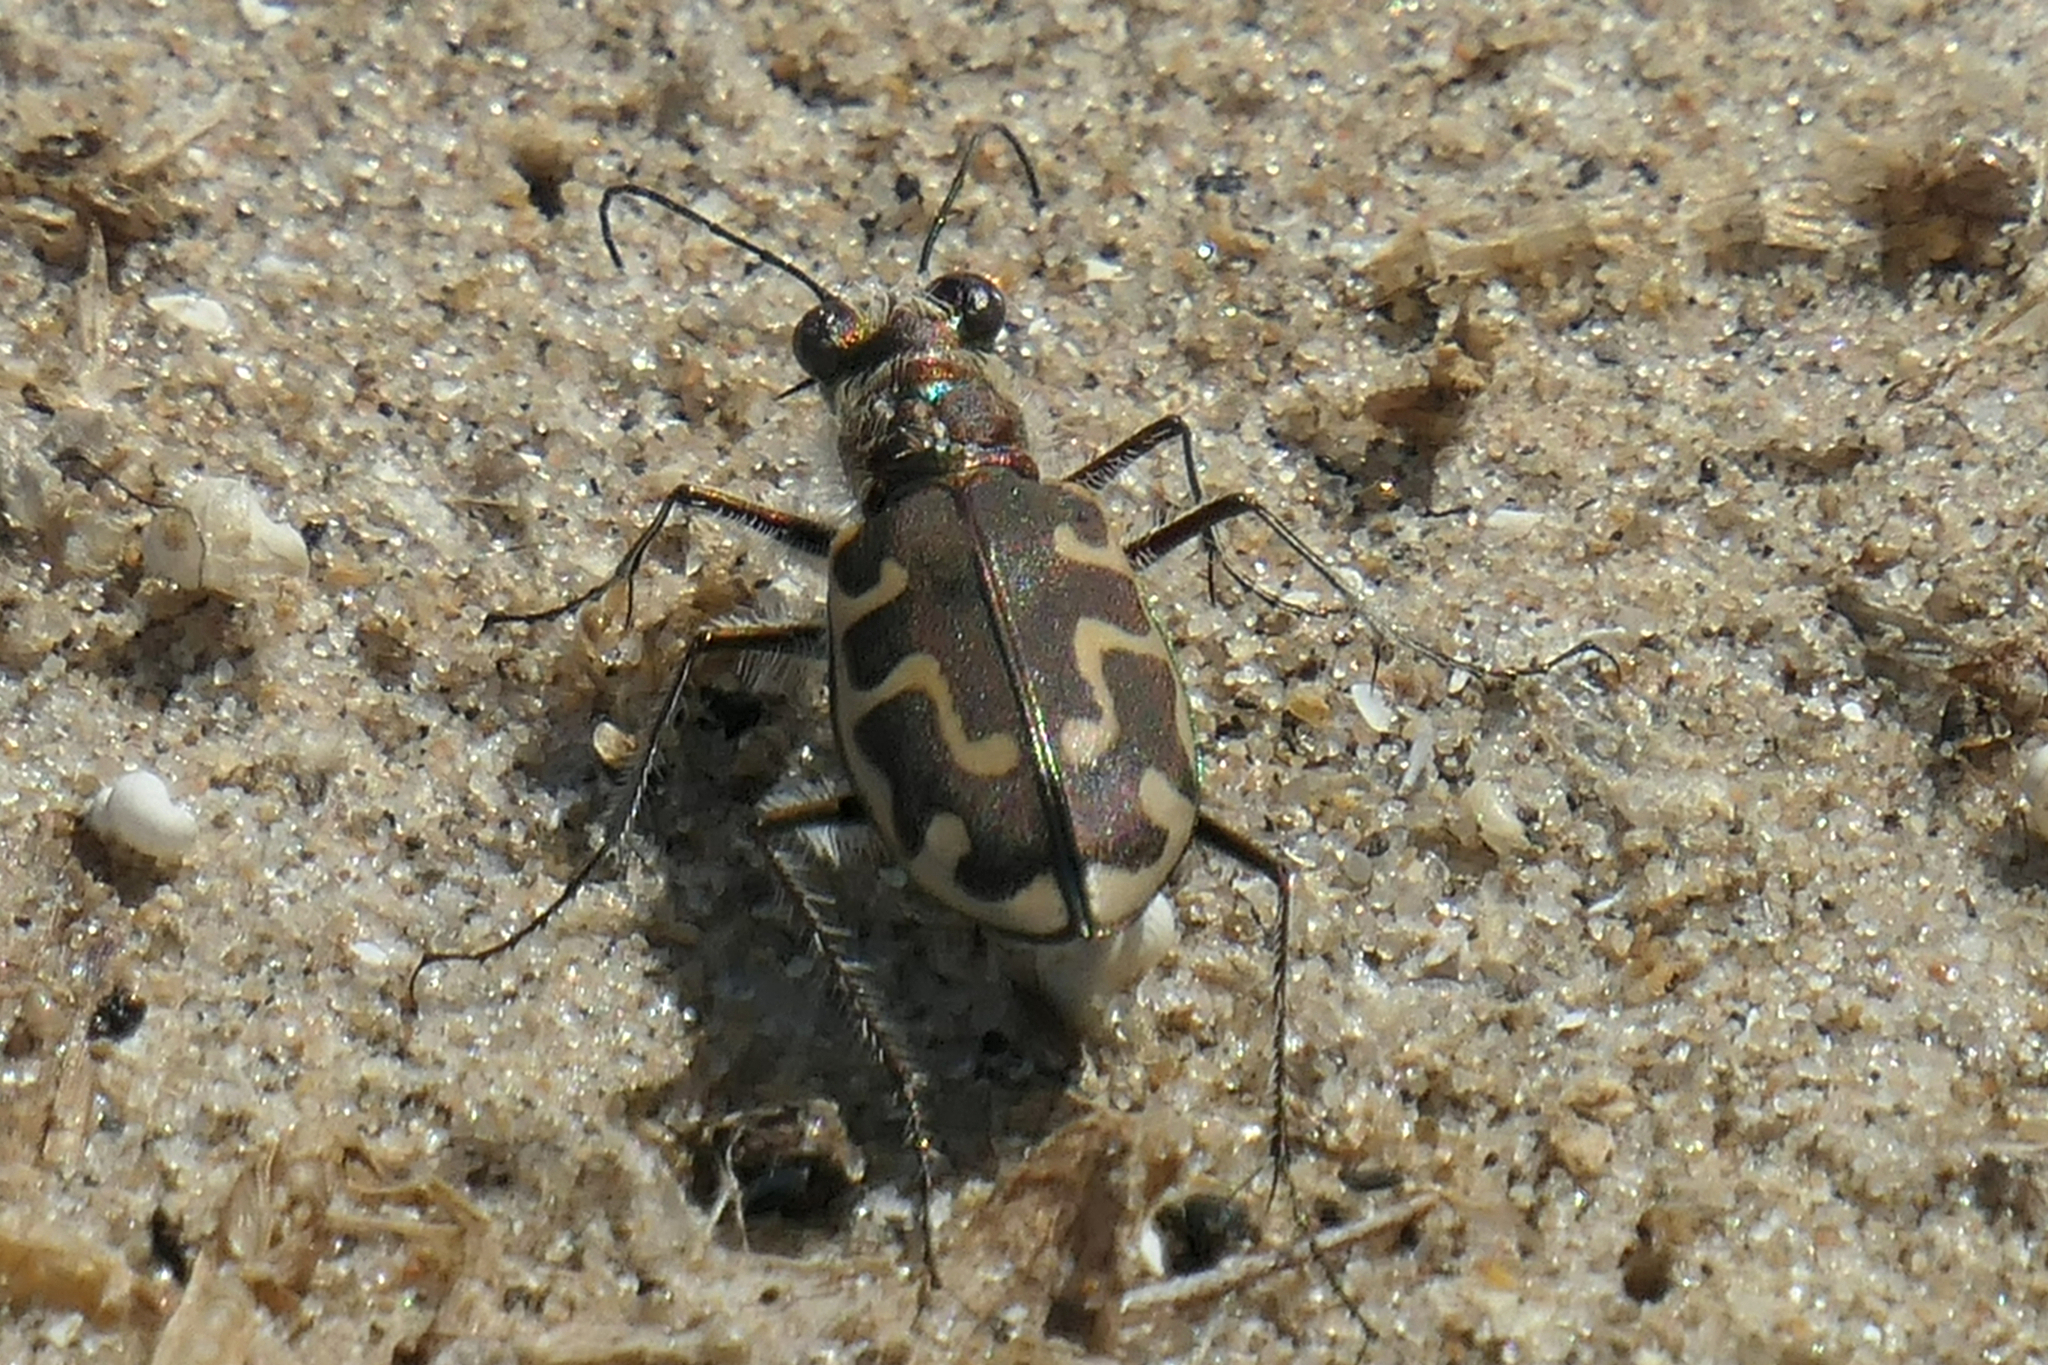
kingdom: Animalia
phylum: Arthropoda
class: Insecta
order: Coleoptera
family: Carabidae
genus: Cicindela
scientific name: Cicindela hirticollis
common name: Hairy-necked tiger beetle
